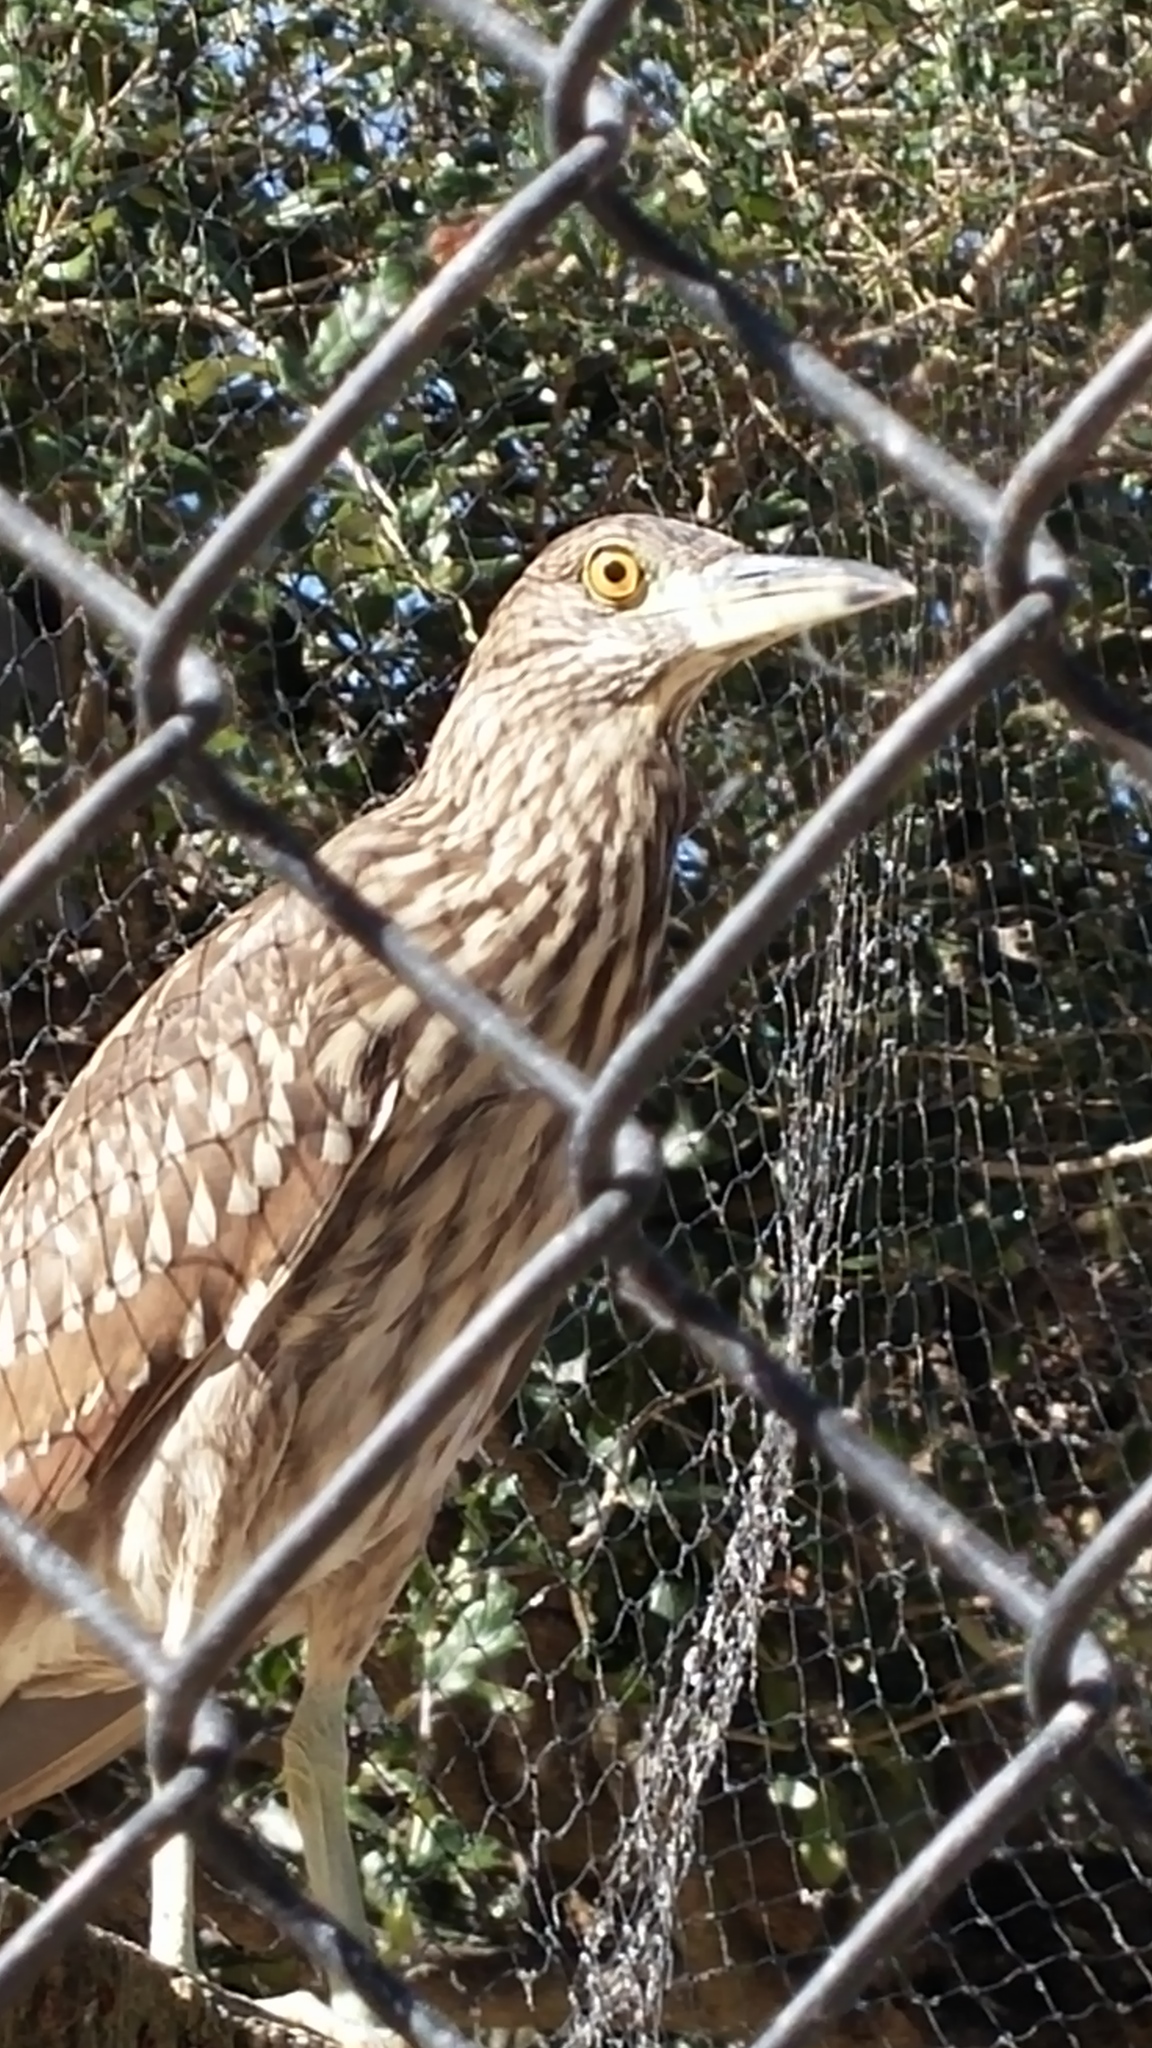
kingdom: Animalia
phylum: Chordata
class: Aves
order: Pelecaniformes
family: Ardeidae
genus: Nycticorax
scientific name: Nycticorax nycticorax
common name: Black-crowned night heron
